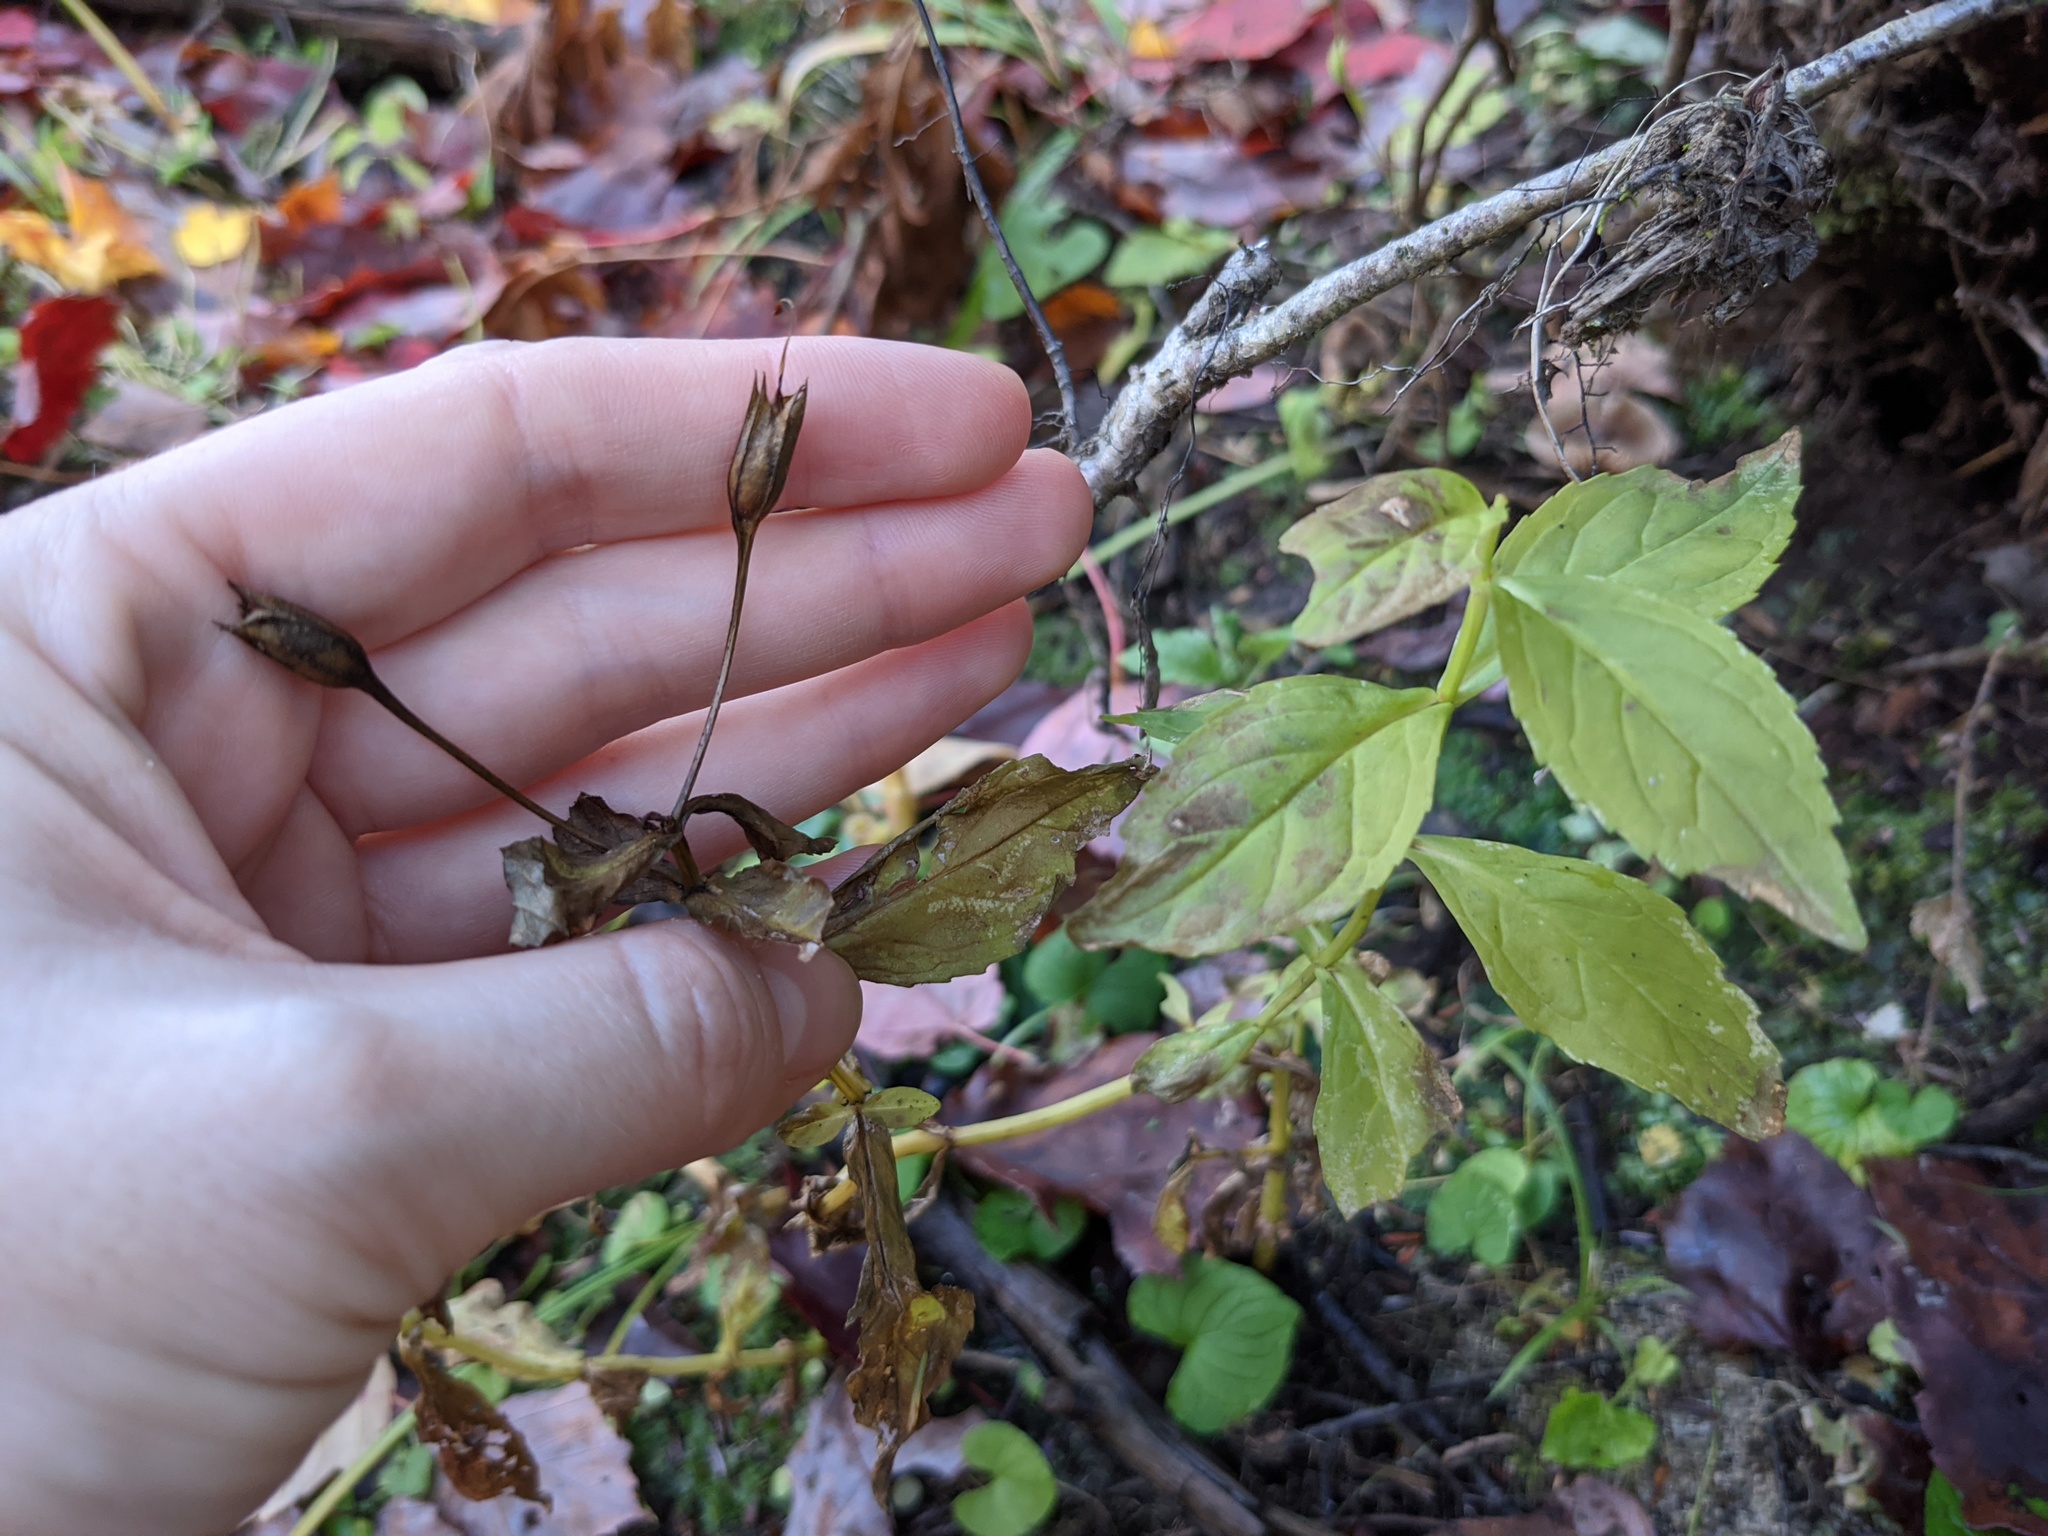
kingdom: Plantae
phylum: Tracheophyta
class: Magnoliopsida
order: Lamiales
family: Phrymaceae
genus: Mimulus
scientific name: Mimulus ringens
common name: Allegheny monkeyflower
